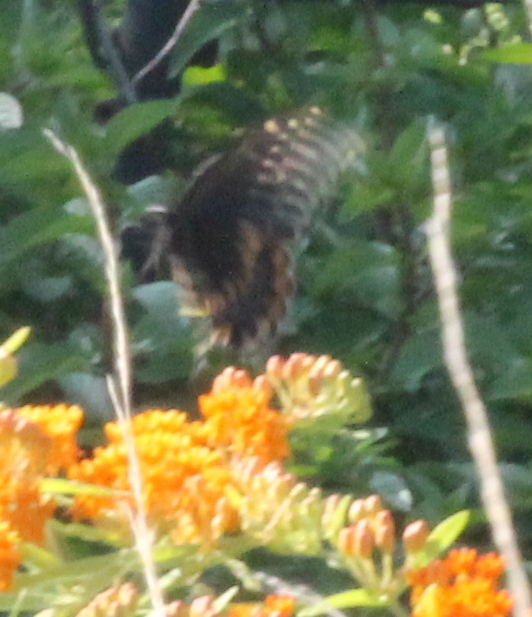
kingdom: Animalia
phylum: Arthropoda
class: Insecta
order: Lepidoptera
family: Papilionidae
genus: Papilio
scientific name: Papilio polyxenes
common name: Black swallowtail
